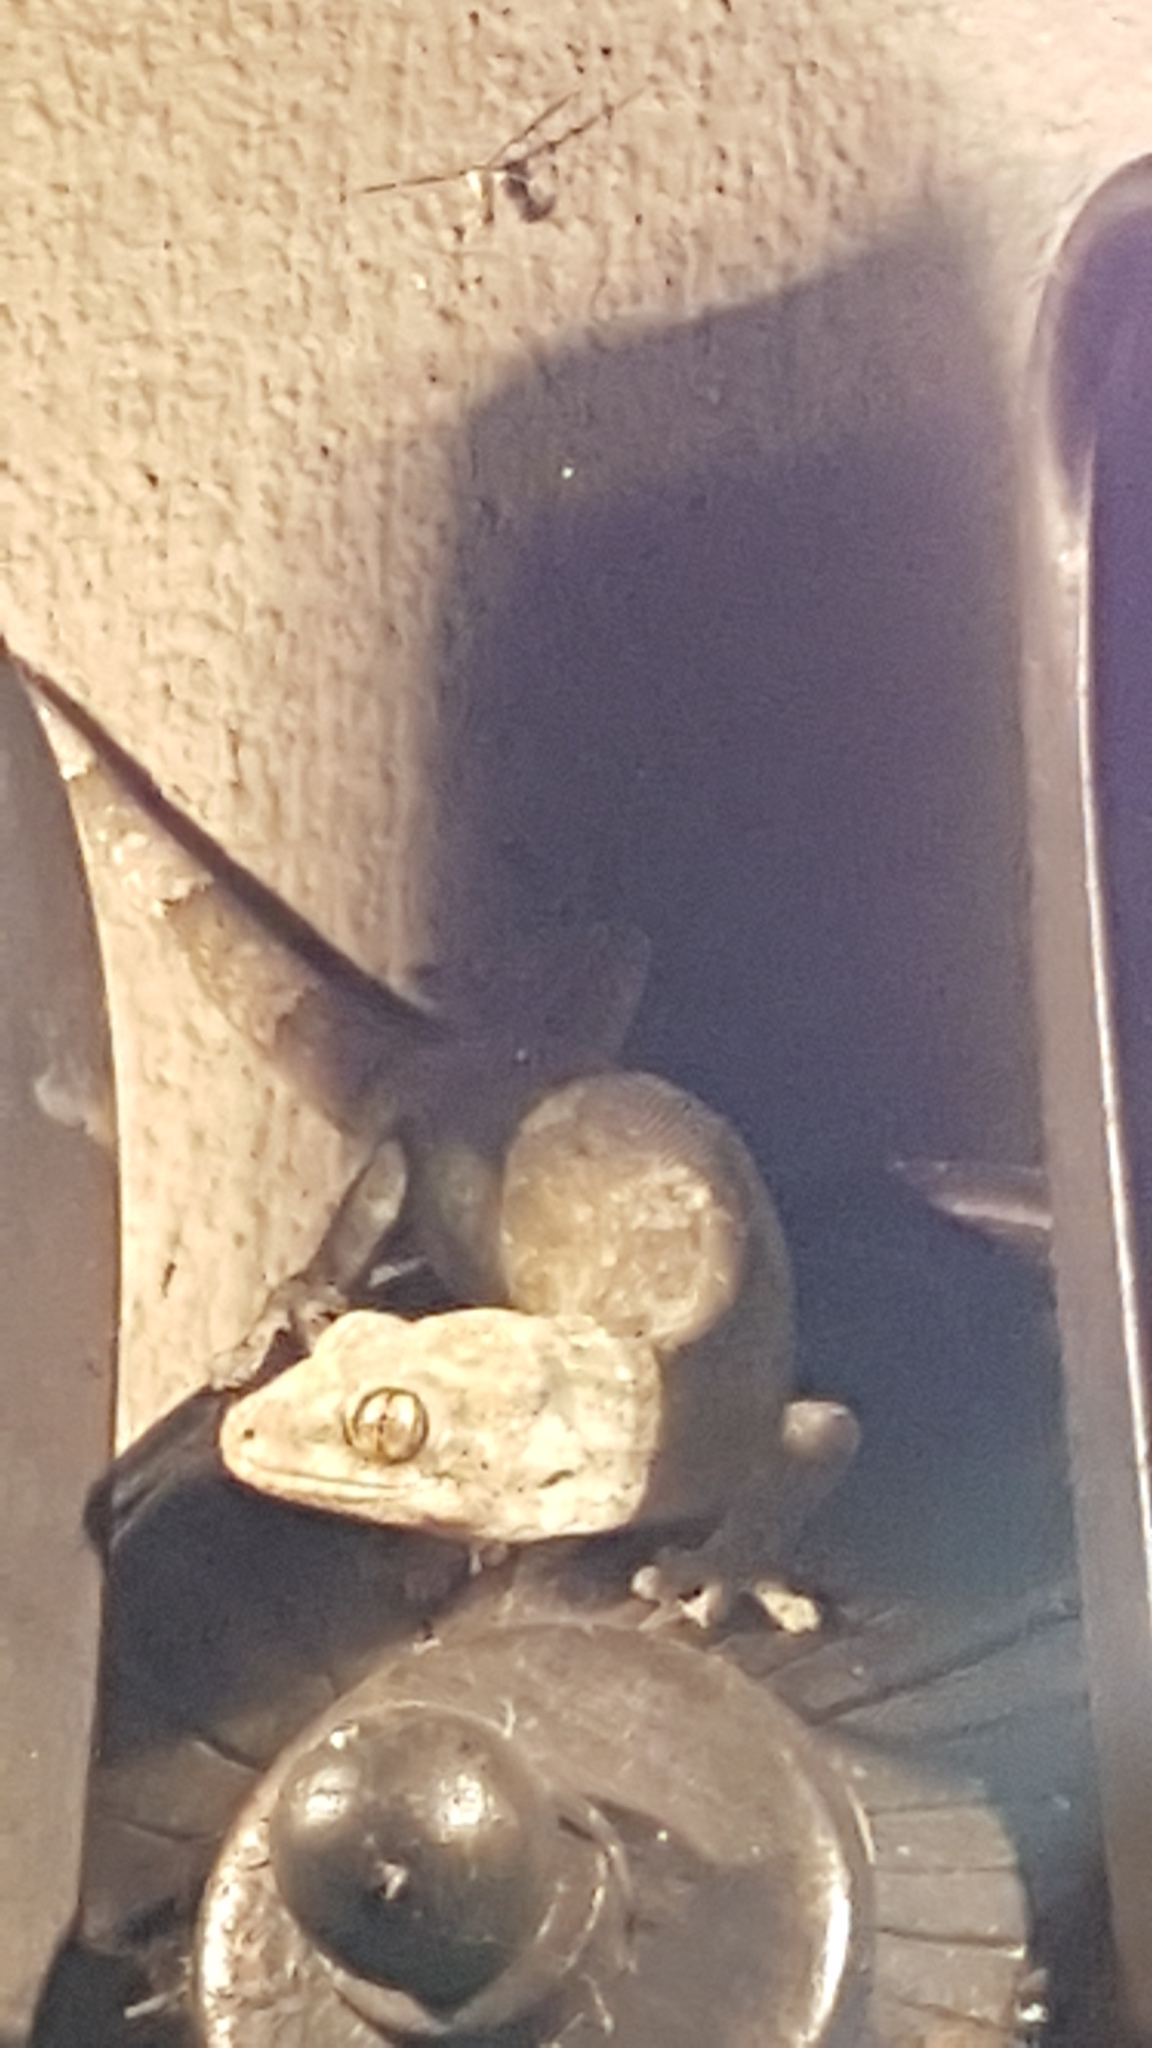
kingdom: Animalia
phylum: Chordata
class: Squamata
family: Gekkonidae
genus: Homopholis
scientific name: Homopholis walbergii
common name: Wahlberg’s velvet gecko
